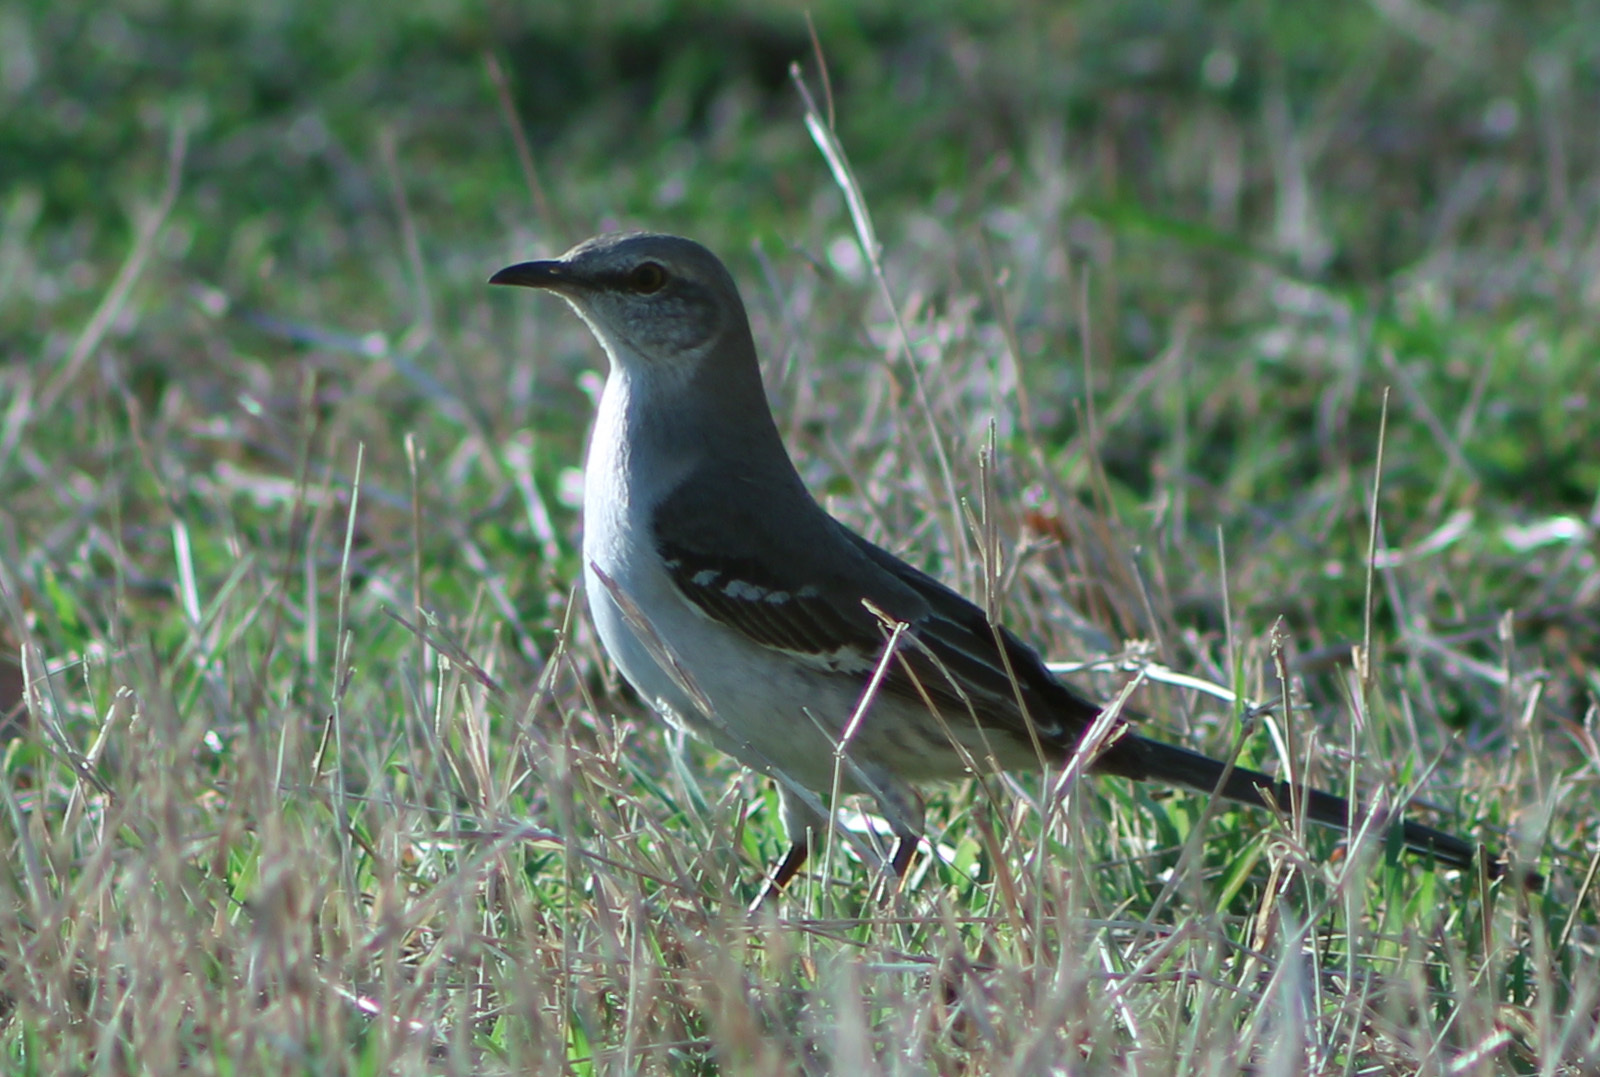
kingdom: Animalia
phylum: Chordata
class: Aves
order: Passeriformes
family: Mimidae
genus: Mimus
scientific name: Mimus polyglottos
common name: Northern mockingbird
